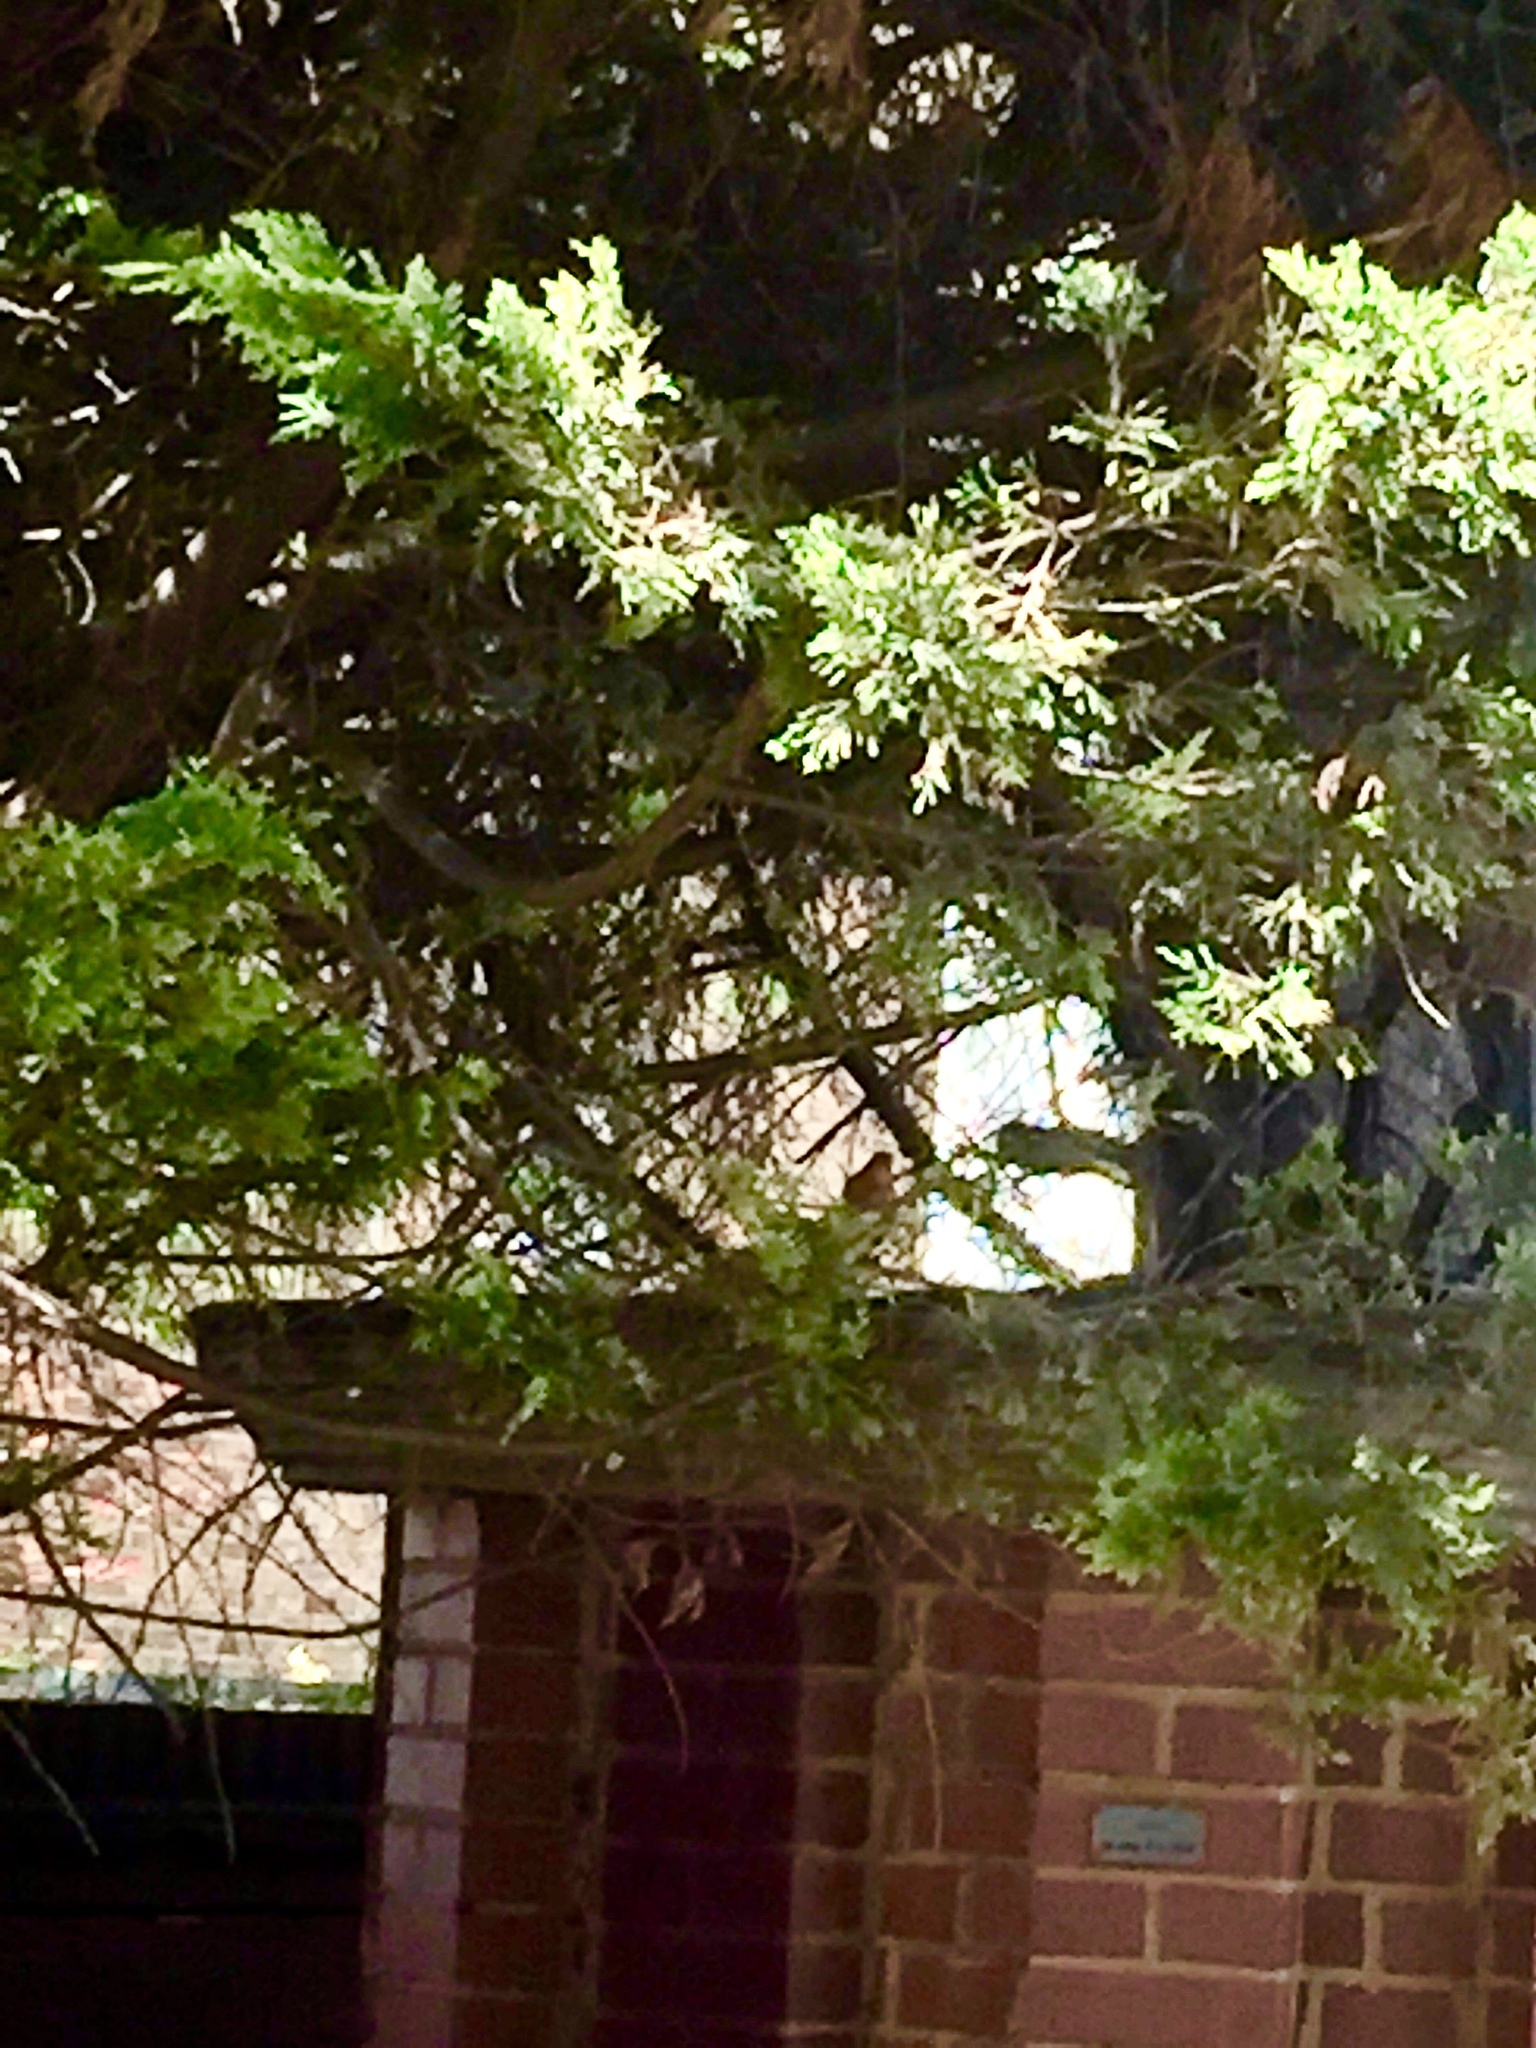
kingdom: Animalia
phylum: Chordata
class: Aves
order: Passeriformes
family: Muscicapidae
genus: Erithacus
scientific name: Erithacus rubecula
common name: European robin
